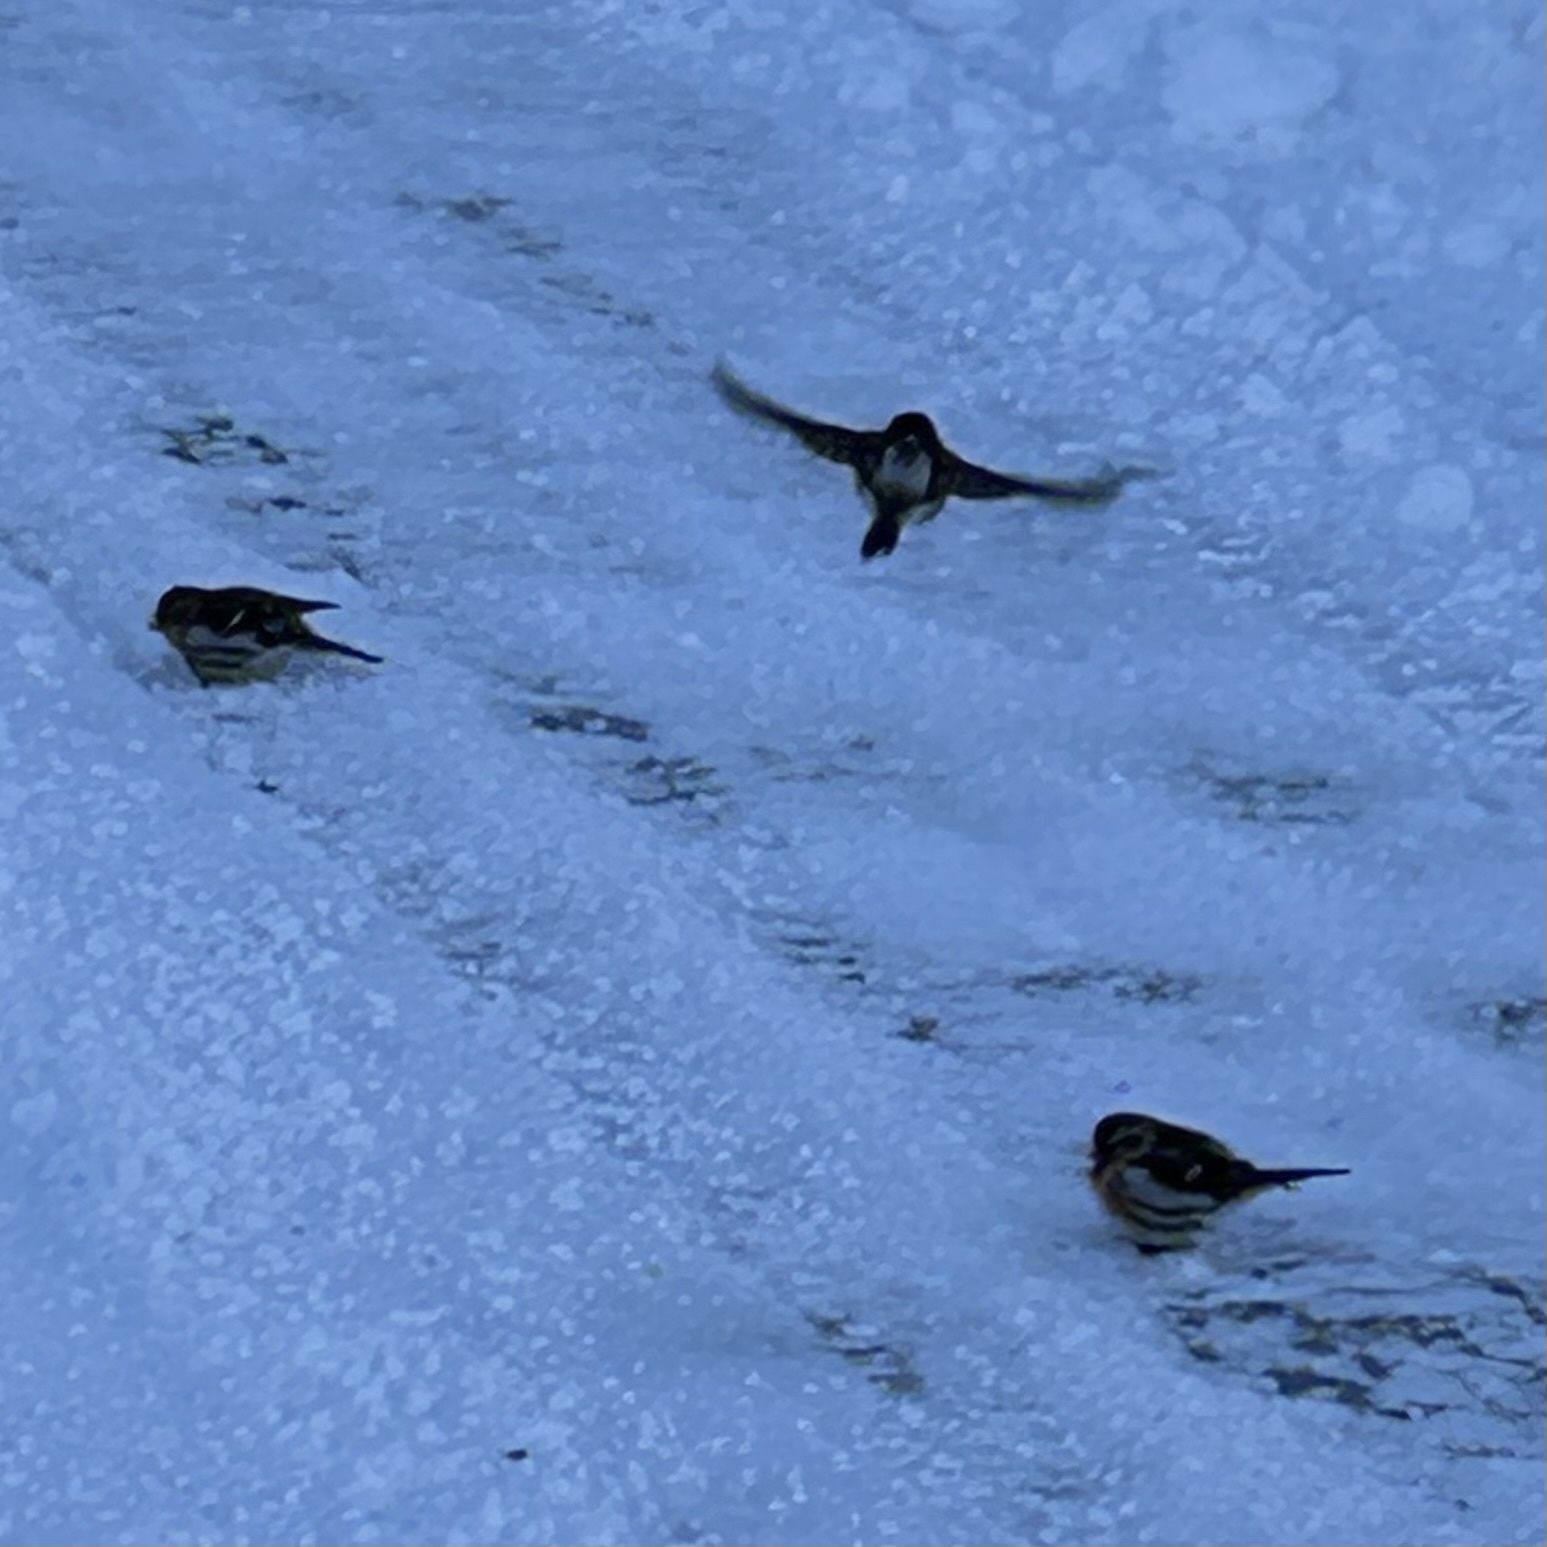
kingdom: Animalia
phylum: Chordata
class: Aves
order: Passeriformes
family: Fringillidae
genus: Acanthis
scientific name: Acanthis flammea
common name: Common redpoll
